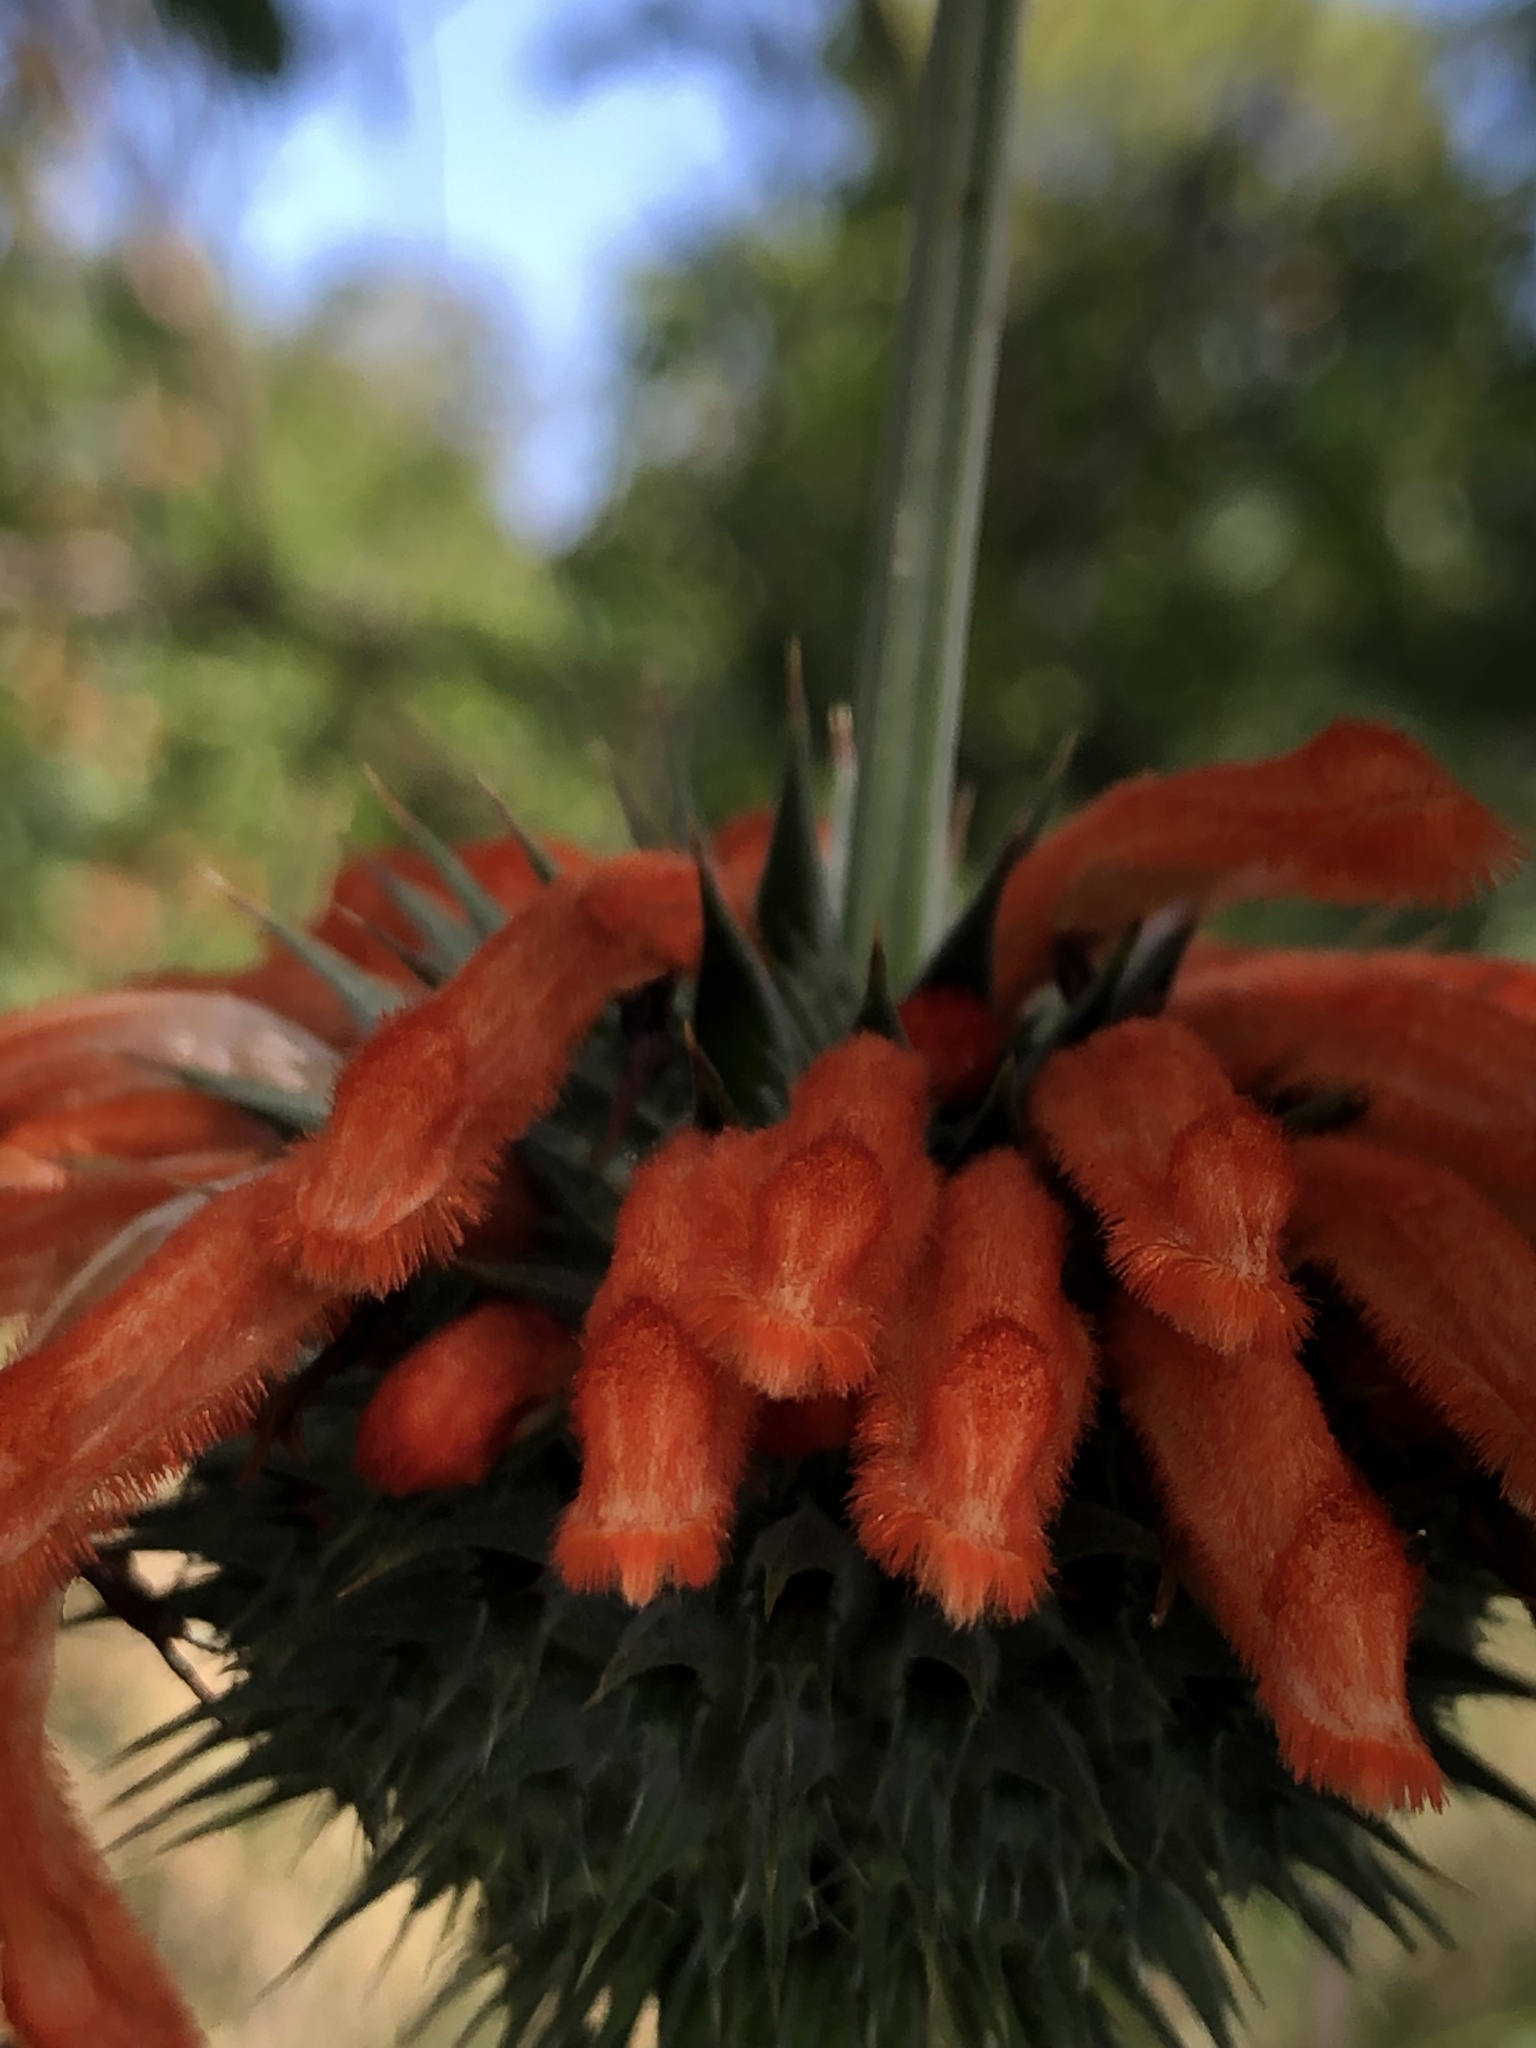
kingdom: Plantae
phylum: Tracheophyta
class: Magnoliopsida
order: Lamiales
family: Lamiaceae
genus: Leonotis
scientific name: Leonotis nepetifolia
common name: Christmas candlestick
